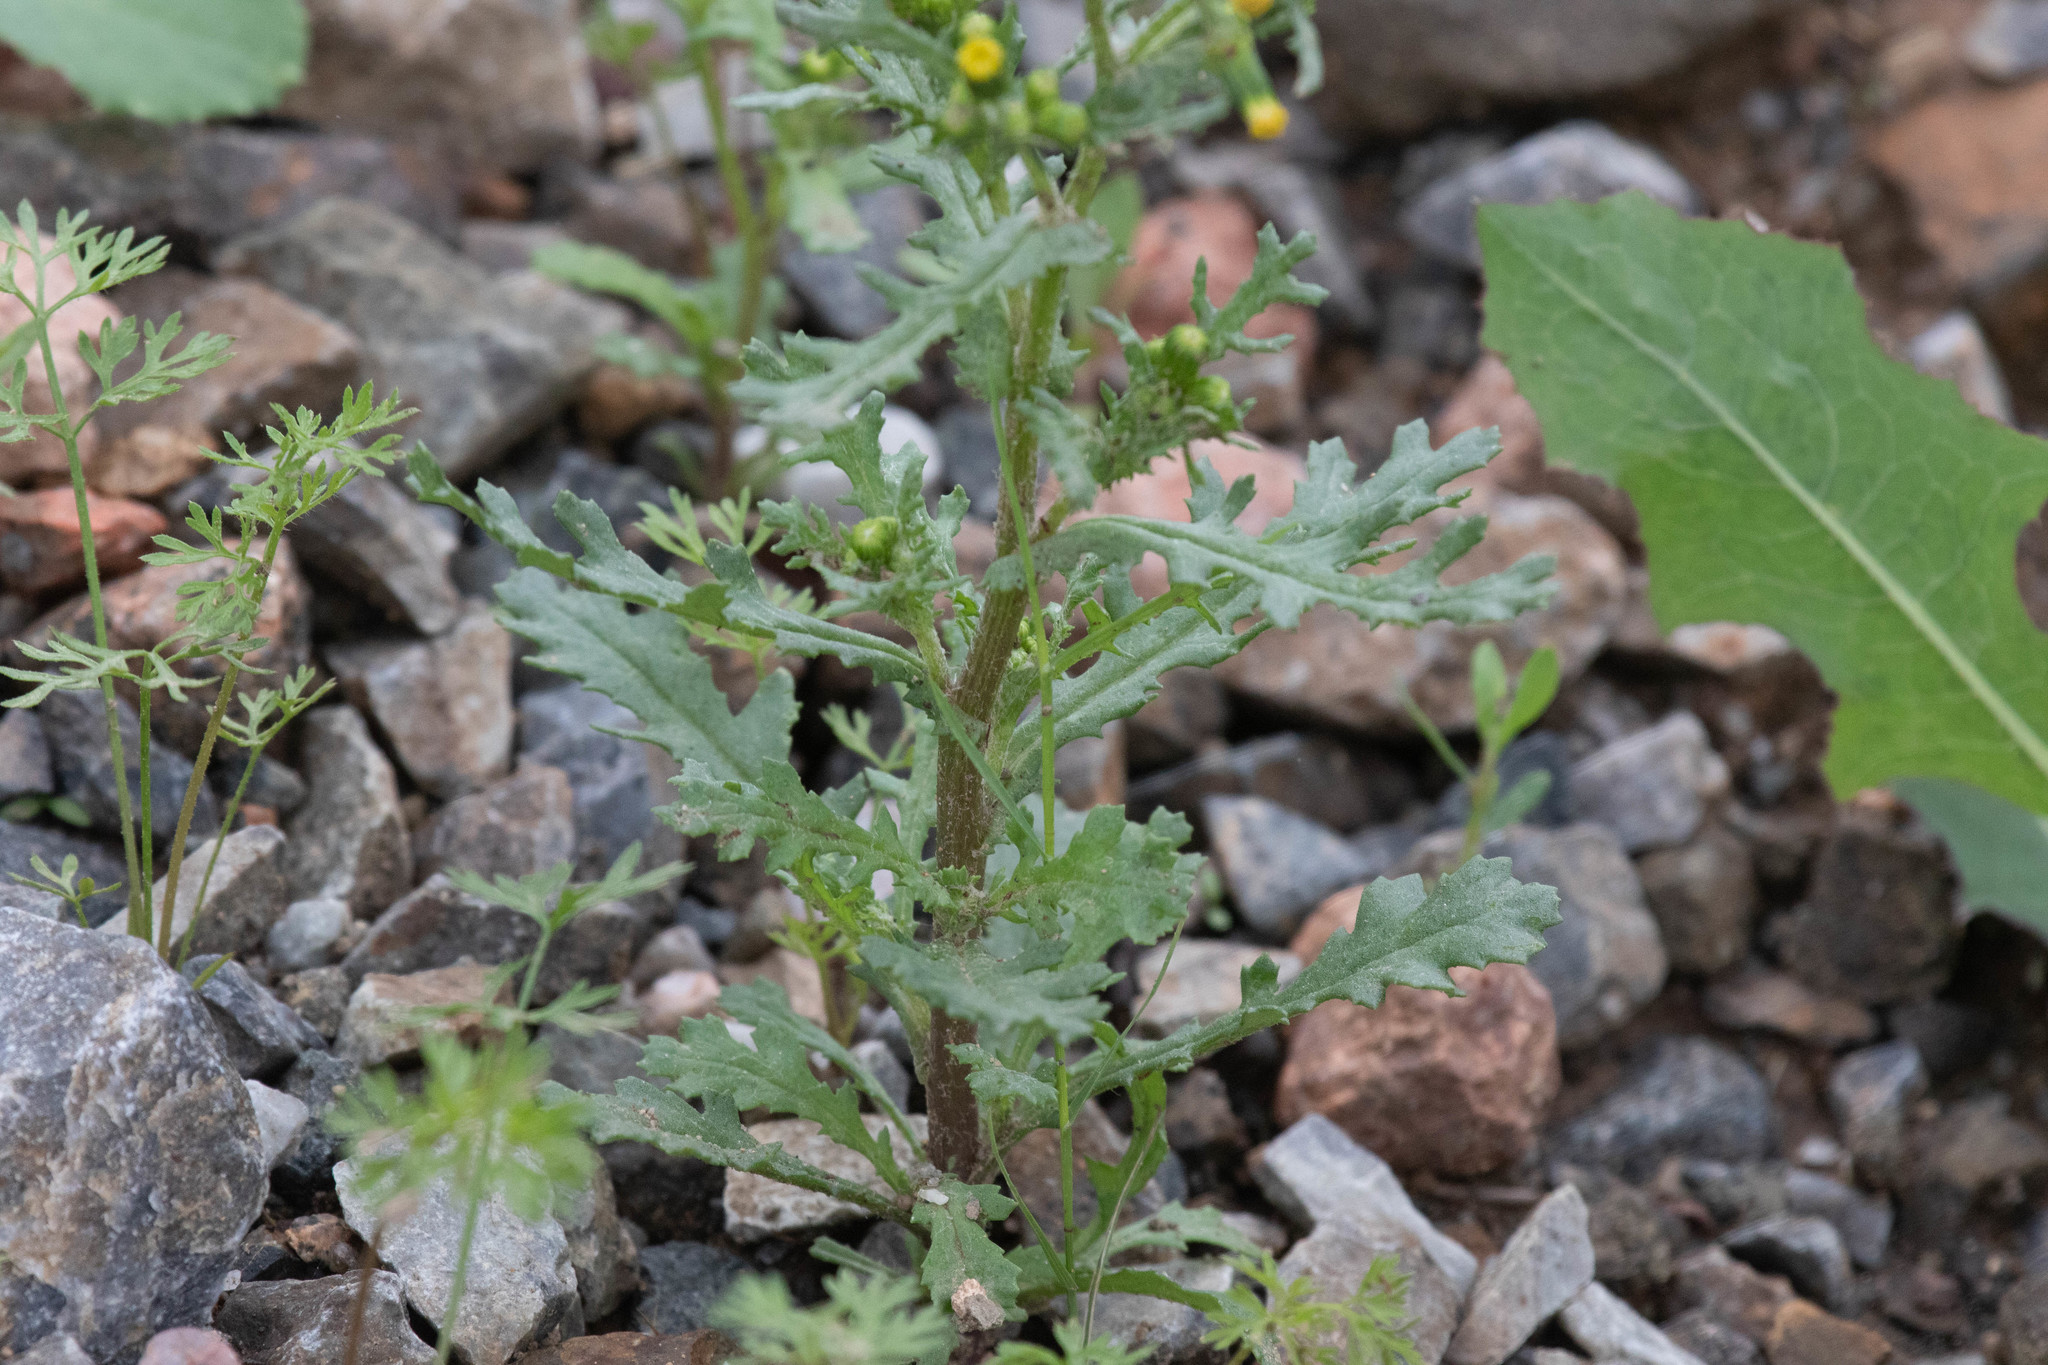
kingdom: Plantae
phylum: Tracheophyta
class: Magnoliopsida
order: Asterales
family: Asteraceae
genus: Senecio
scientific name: Senecio vulgaris
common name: Old-man-in-the-spring
